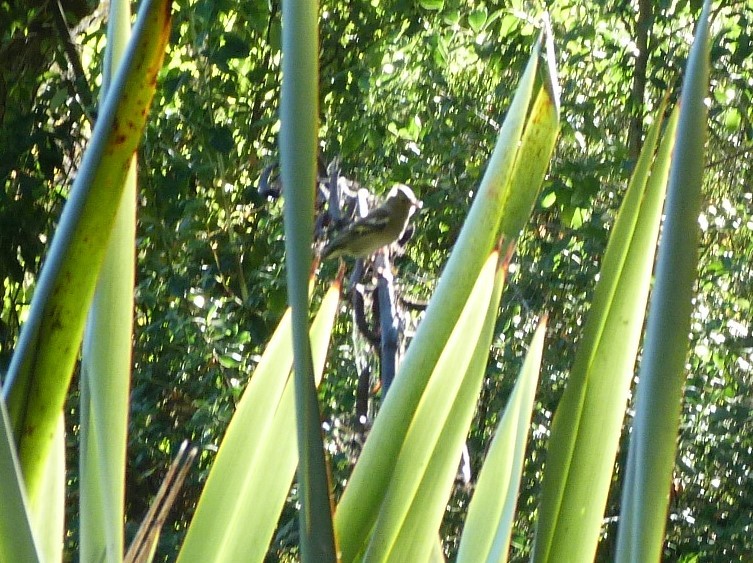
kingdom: Animalia
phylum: Chordata
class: Aves
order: Passeriformes
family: Fringillidae
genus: Fringilla
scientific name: Fringilla coelebs
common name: Common chaffinch
